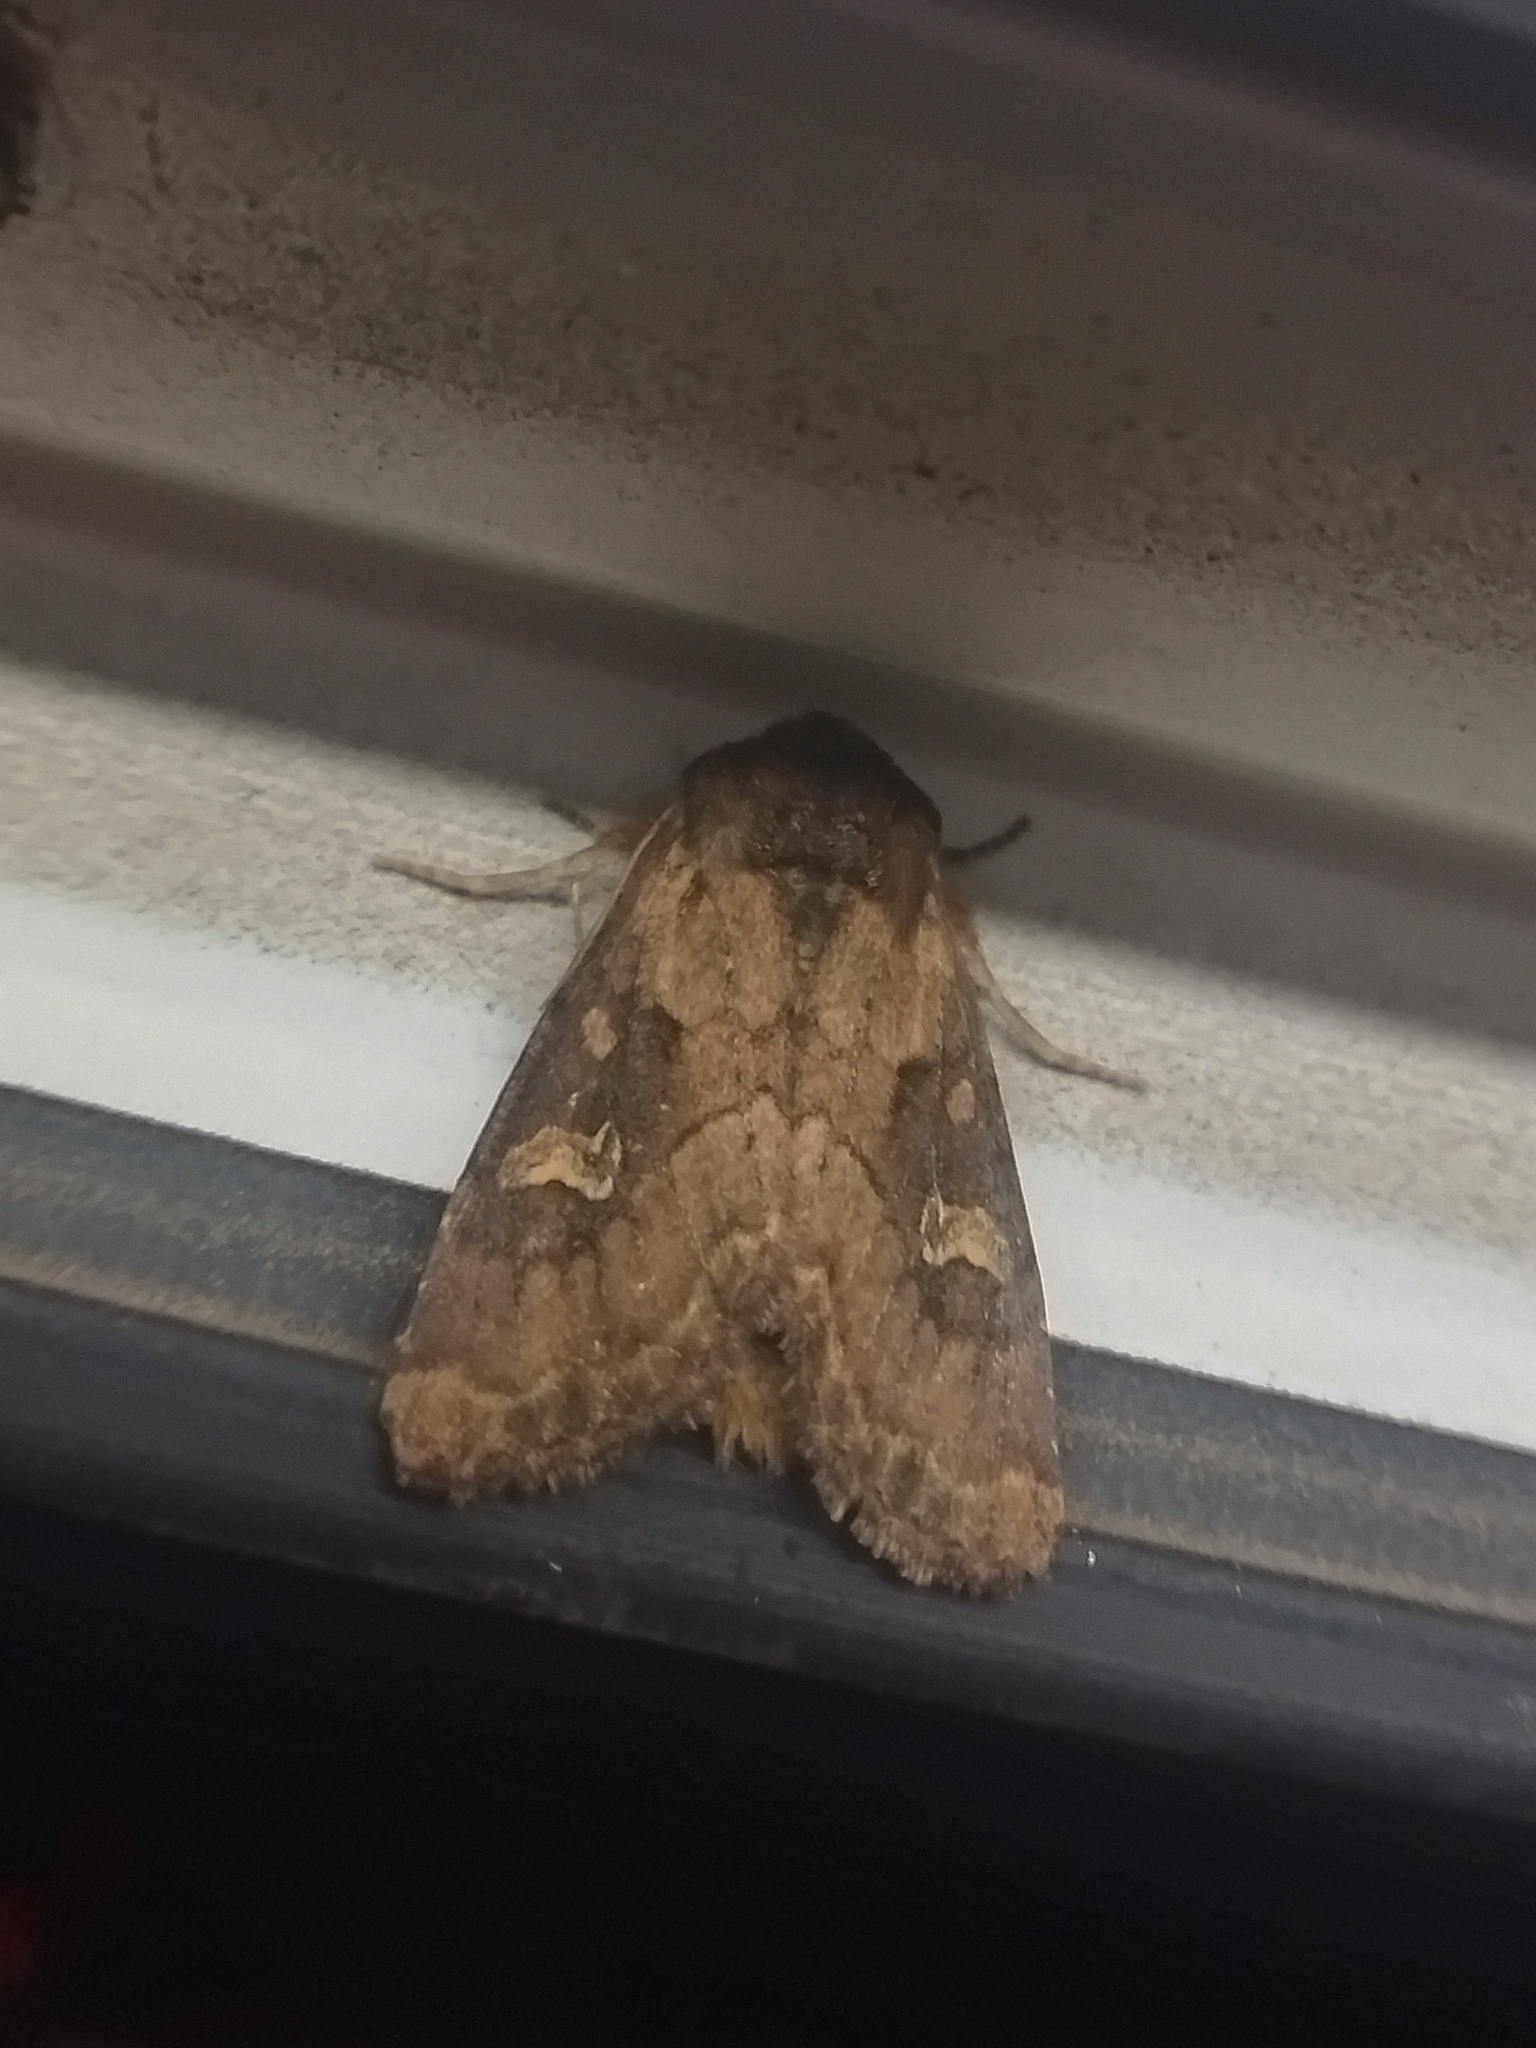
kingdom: Animalia
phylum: Arthropoda
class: Insecta
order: Lepidoptera
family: Noctuidae
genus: Resapamea
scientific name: Resapamea hedeni
